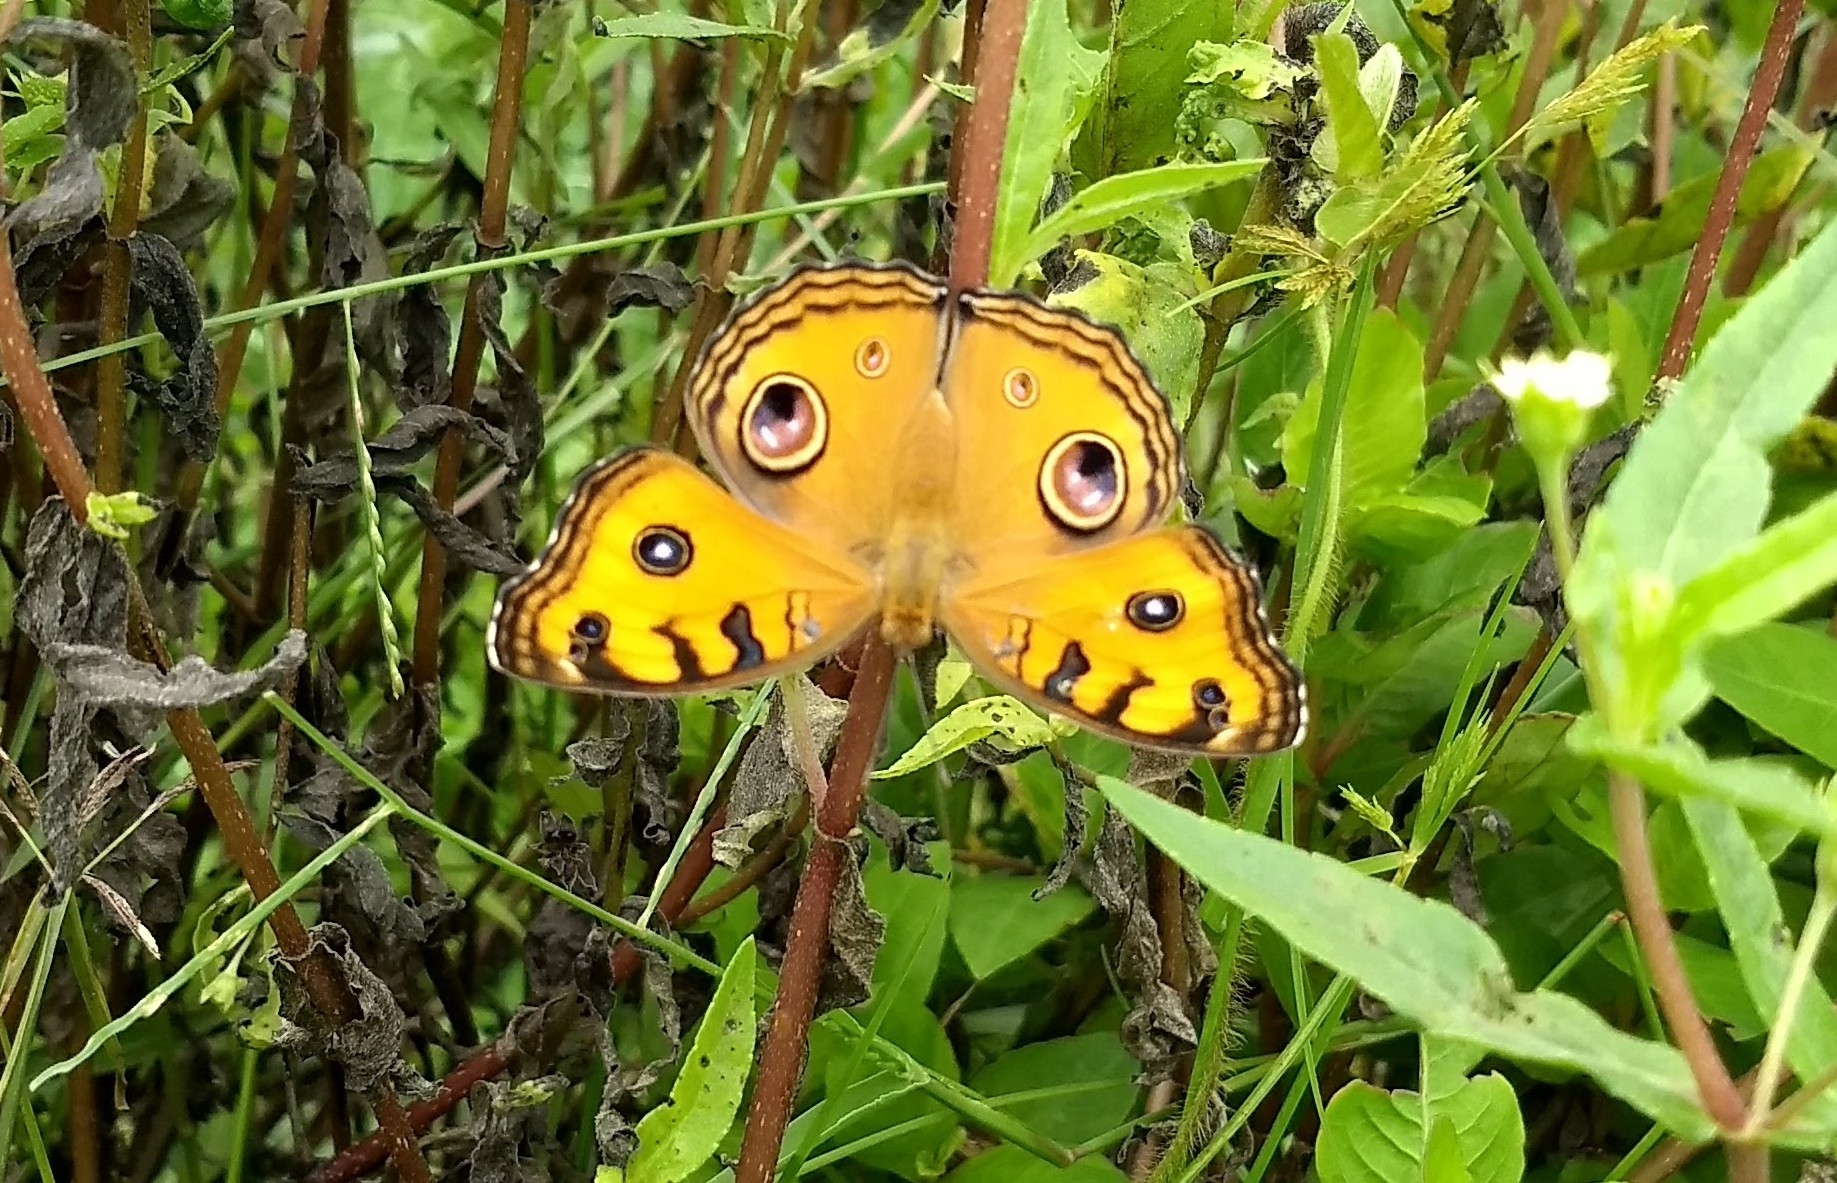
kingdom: Animalia
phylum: Arthropoda
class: Insecta
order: Lepidoptera
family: Nymphalidae
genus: Junonia
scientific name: Junonia almana
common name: Peacock pansy
